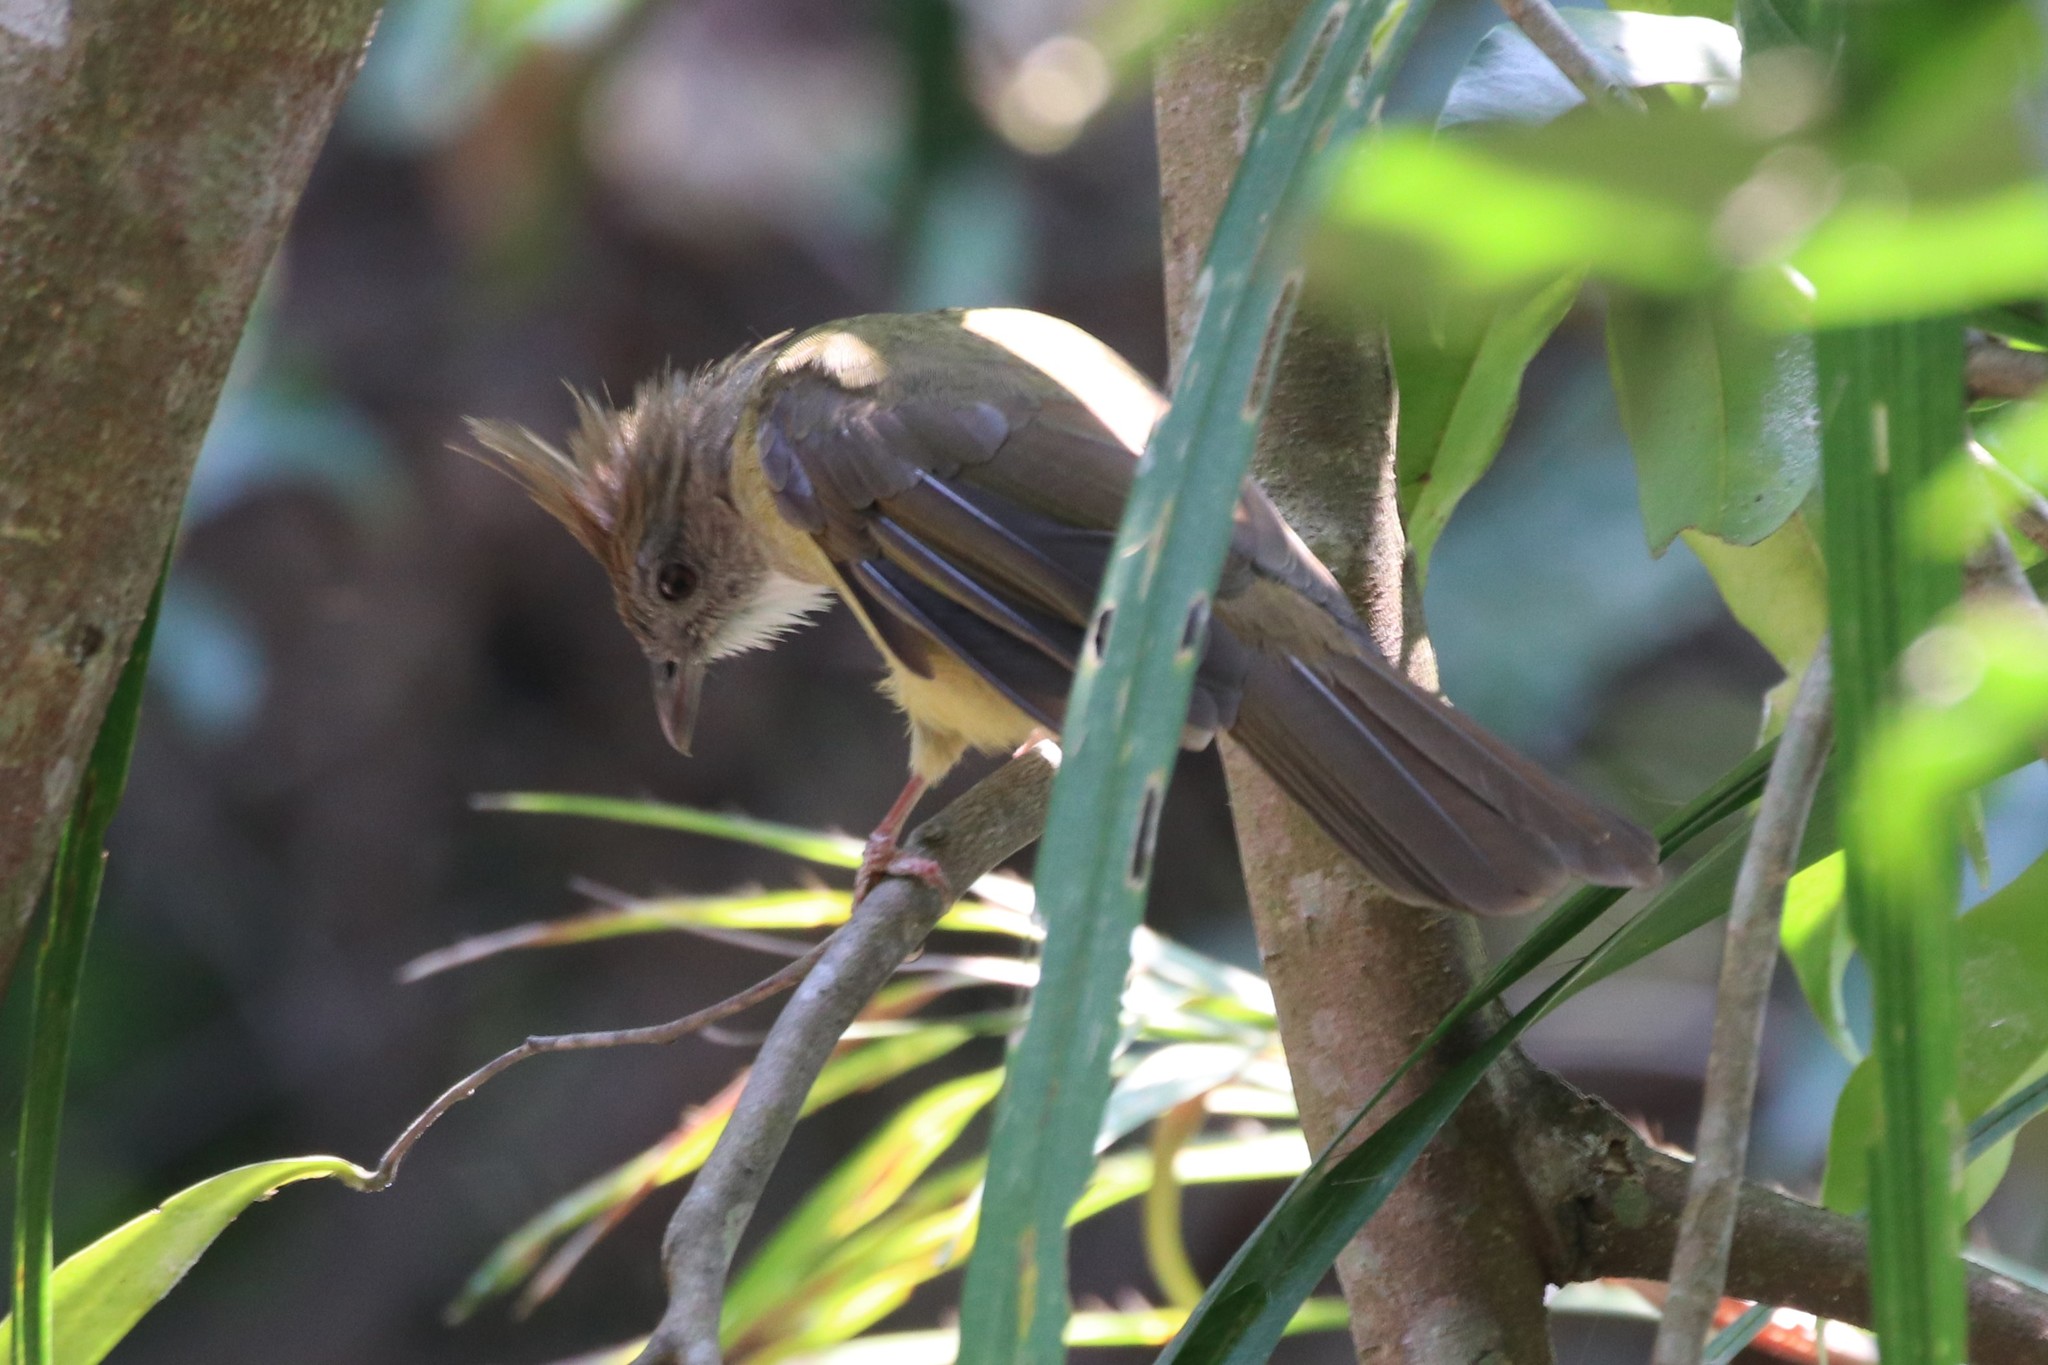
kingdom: Animalia
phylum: Chordata
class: Aves
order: Passeriformes
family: Pycnonotidae
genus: Alophoixus
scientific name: Alophoixus pallidus
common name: Puff-throated bulbul
